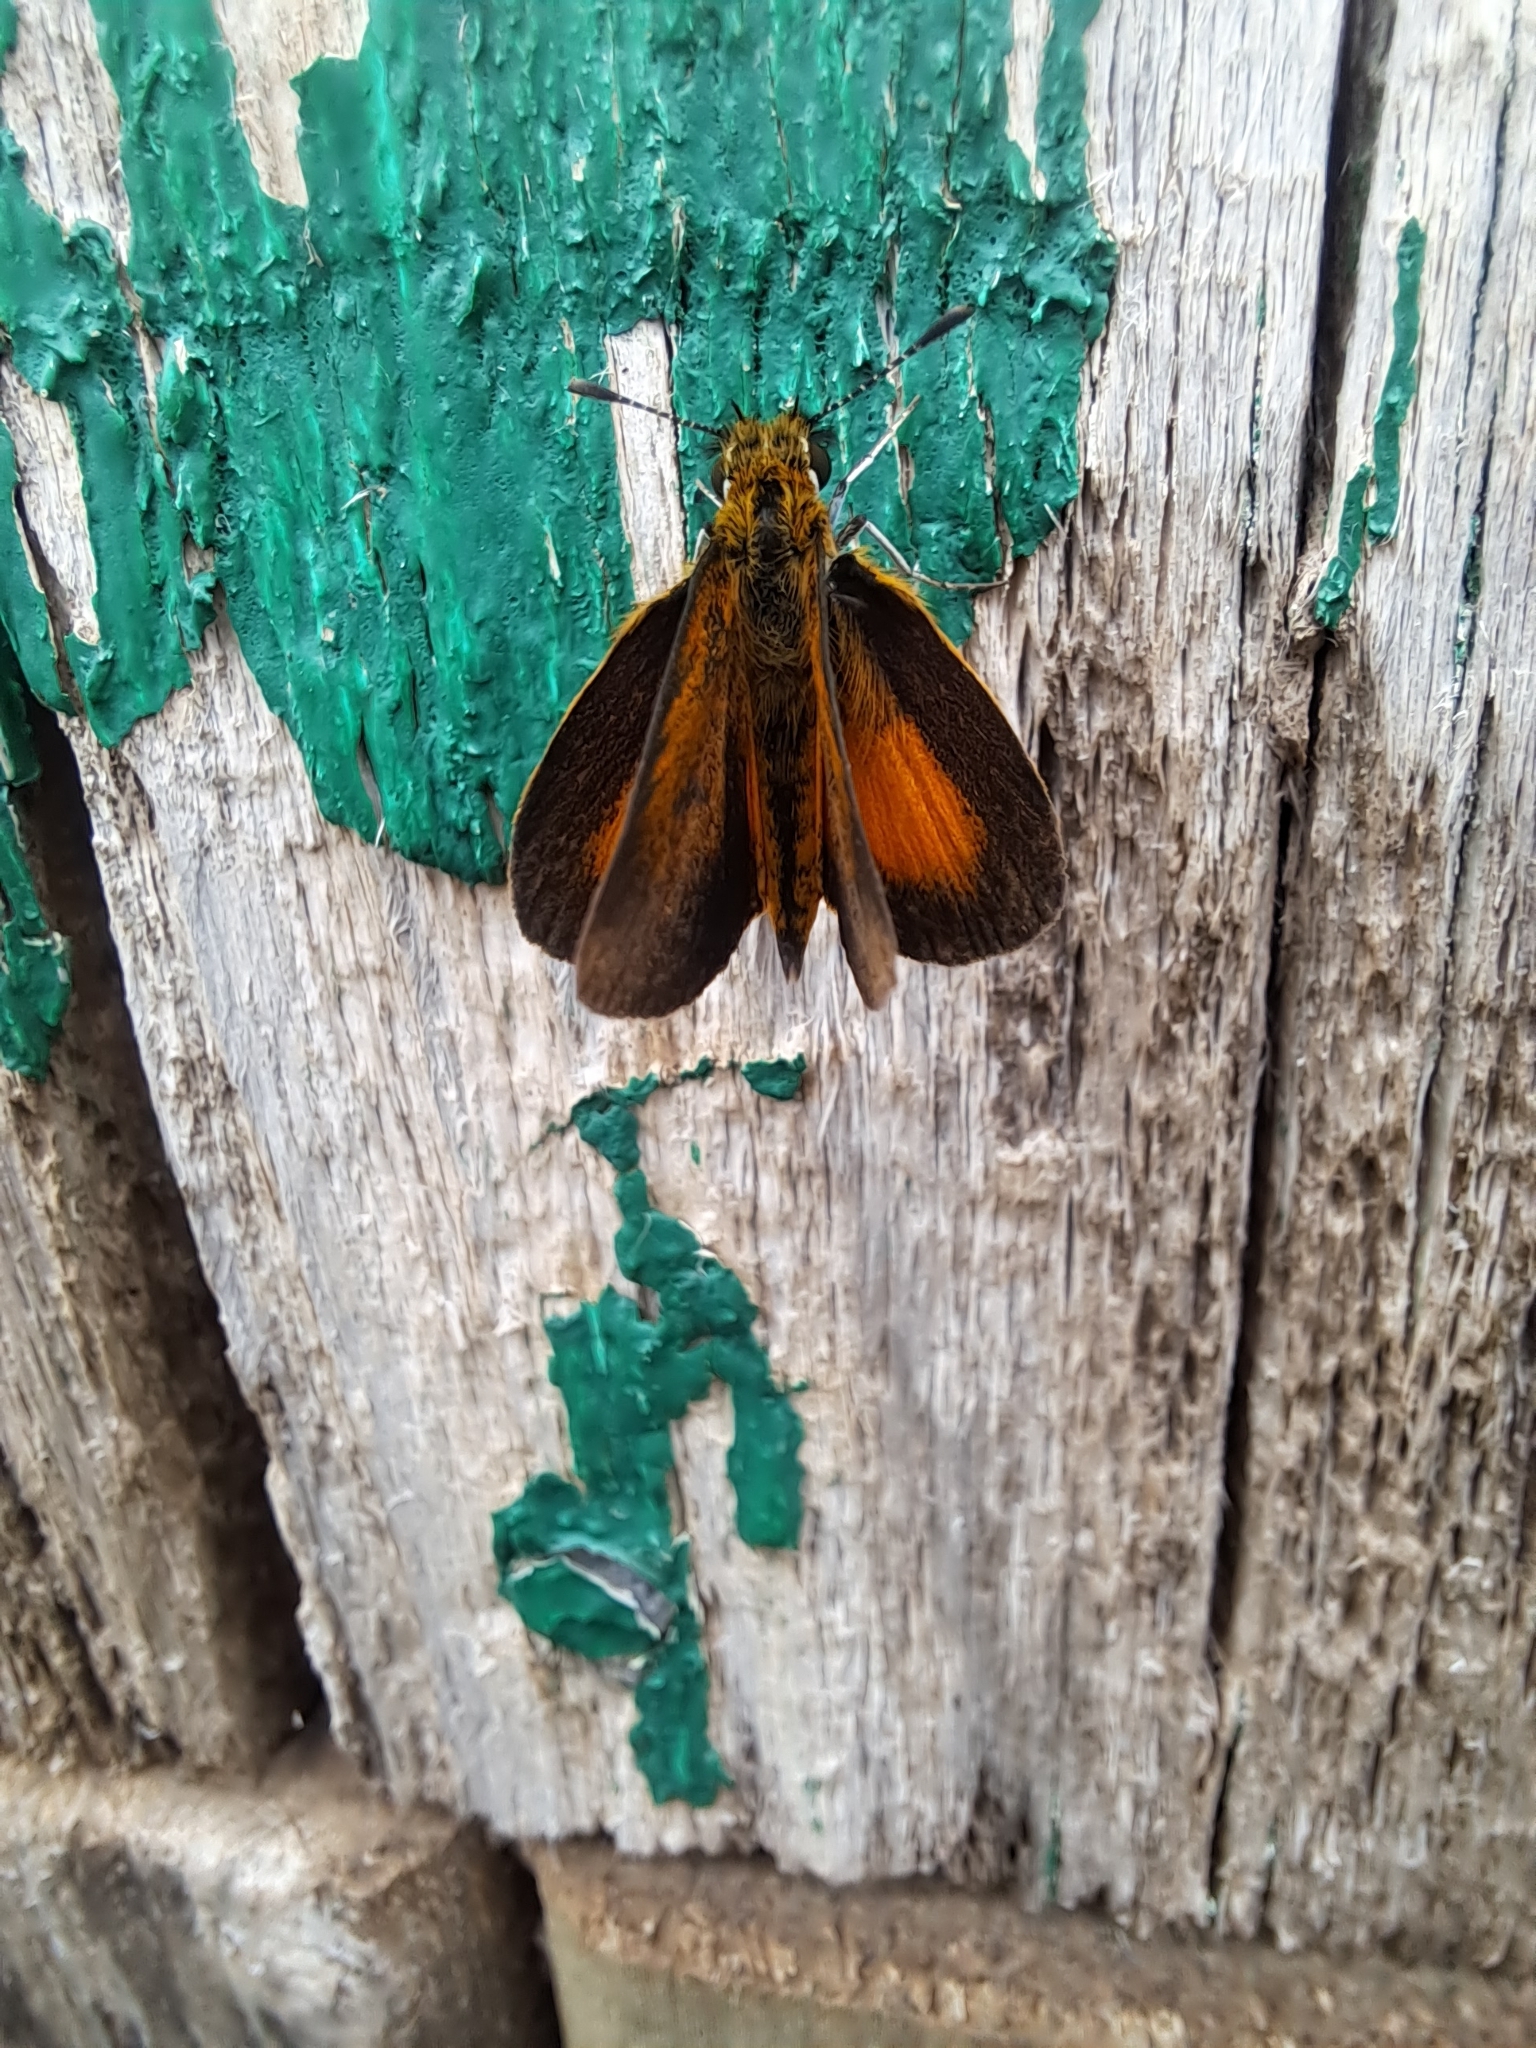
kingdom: Animalia
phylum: Arthropoda
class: Insecta
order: Lepidoptera
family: Hesperiidae
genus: Ancyloxypha
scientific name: Ancyloxypha numitor
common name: Least skipper
